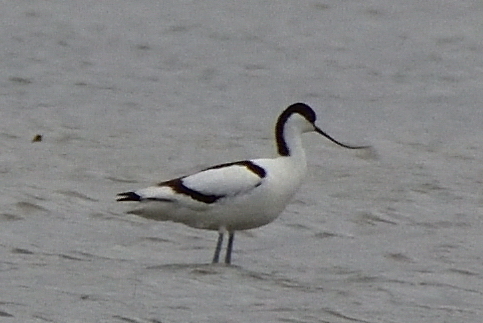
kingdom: Animalia
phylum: Chordata
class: Aves
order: Charadriiformes
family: Recurvirostridae
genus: Recurvirostra
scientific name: Recurvirostra avosetta
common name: Pied avocet
